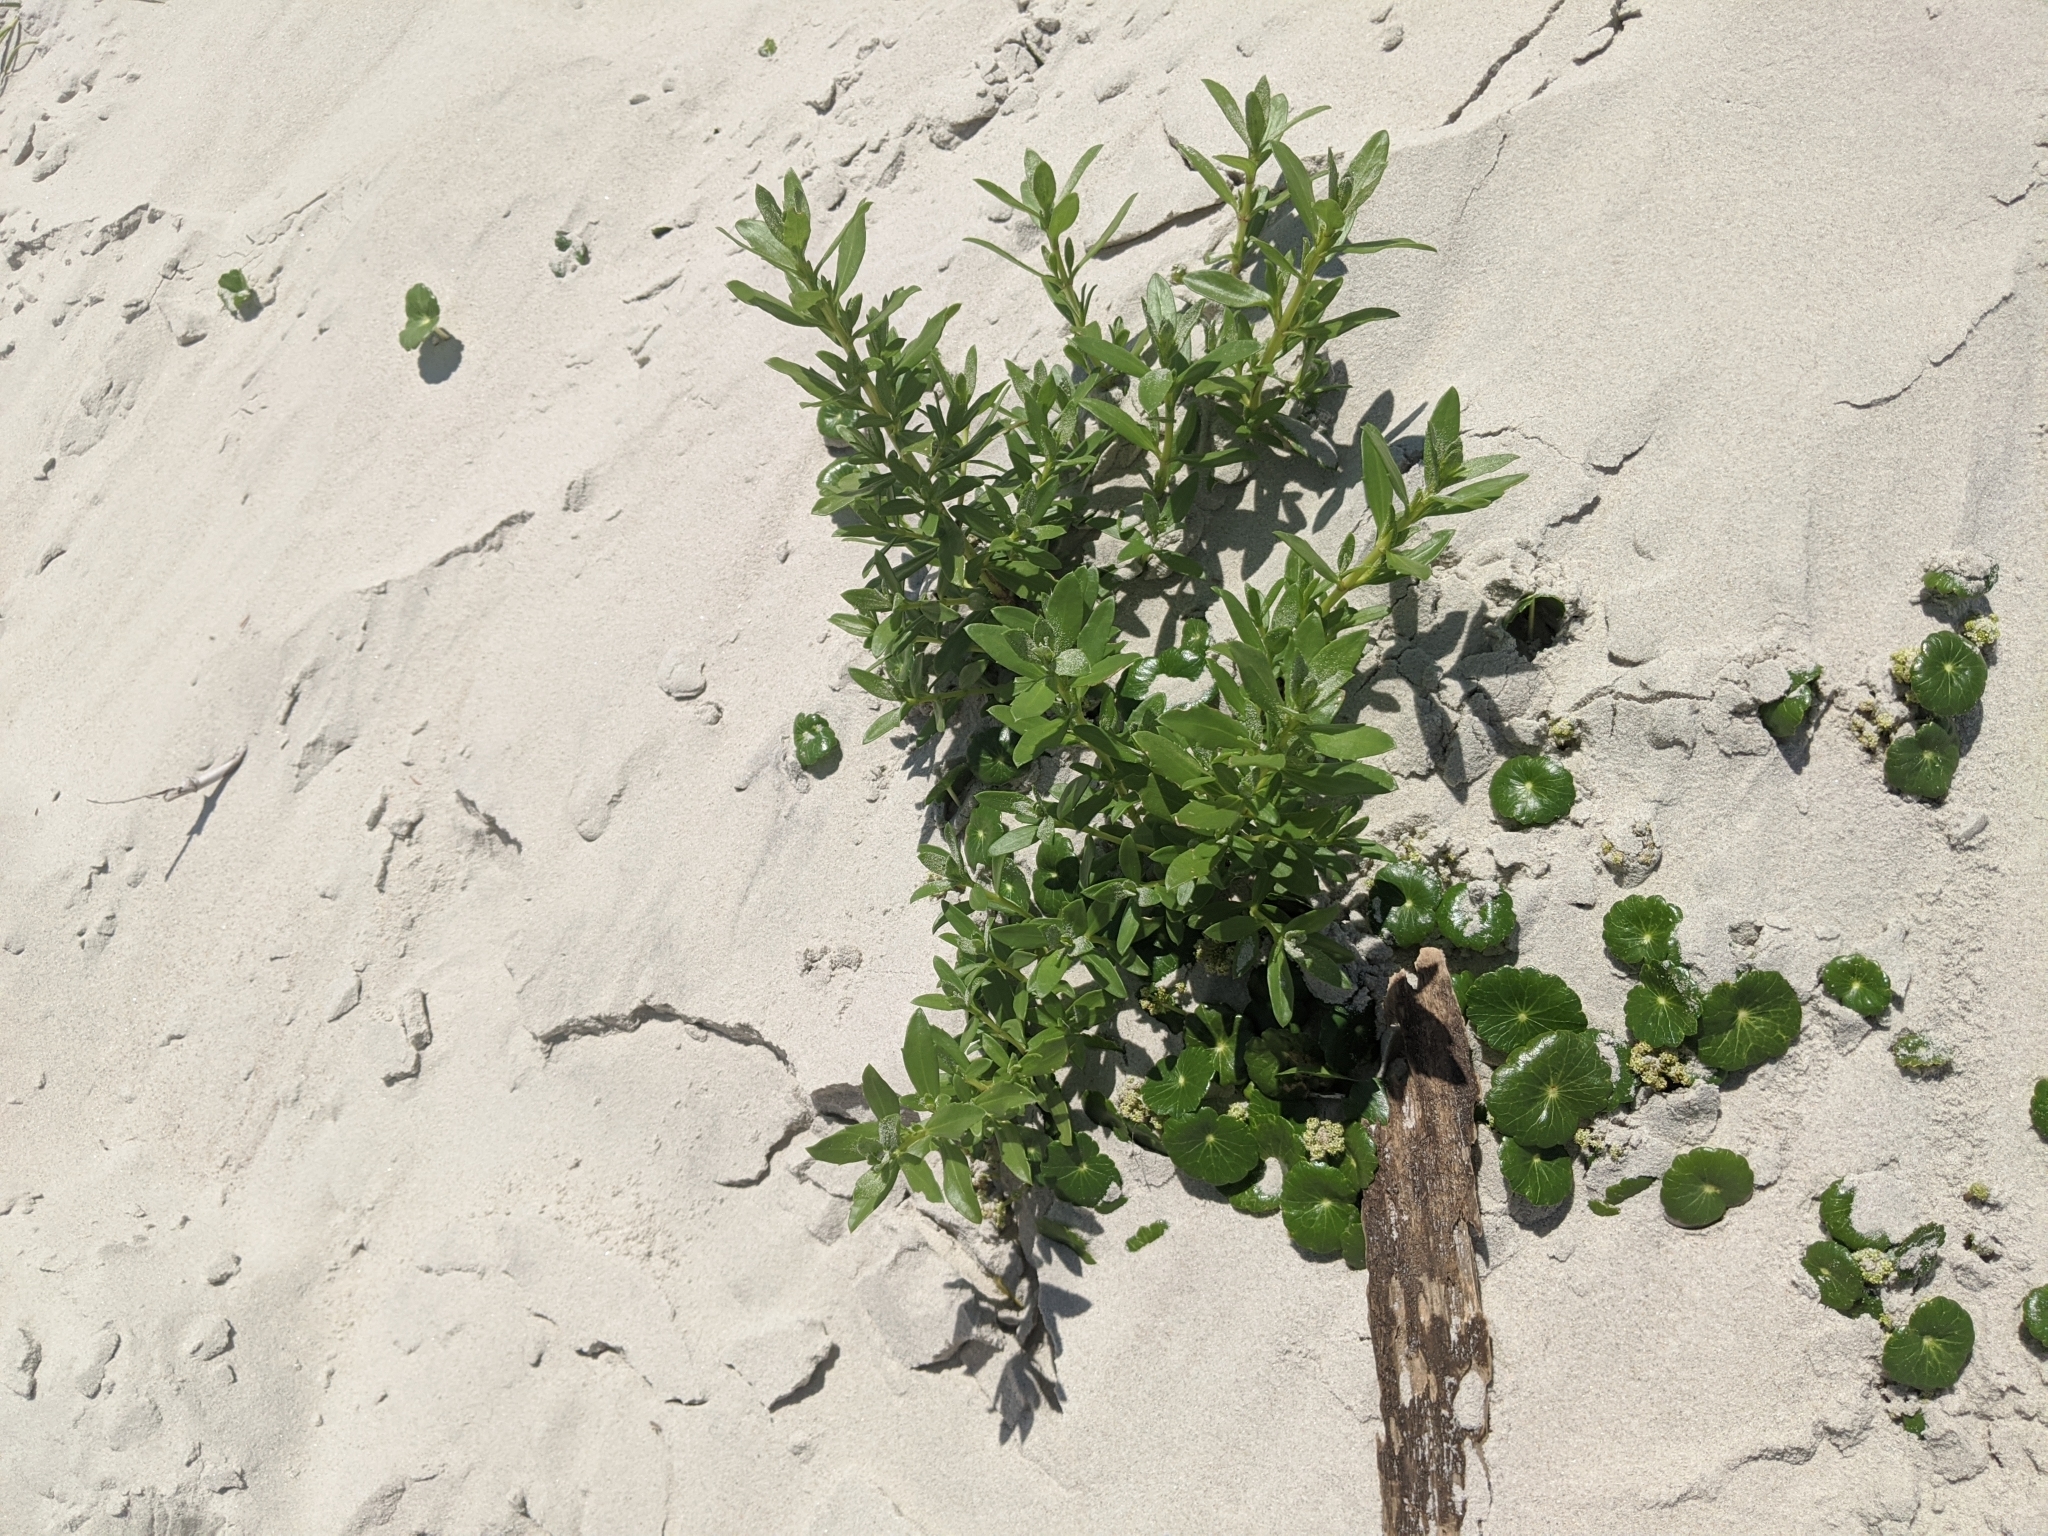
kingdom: Plantae
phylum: Tracheophyta
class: Magnoliopsida
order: Apiales
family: Araliaceae
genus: Hydrocotyle
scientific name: Hydrocotyle bonariensis
